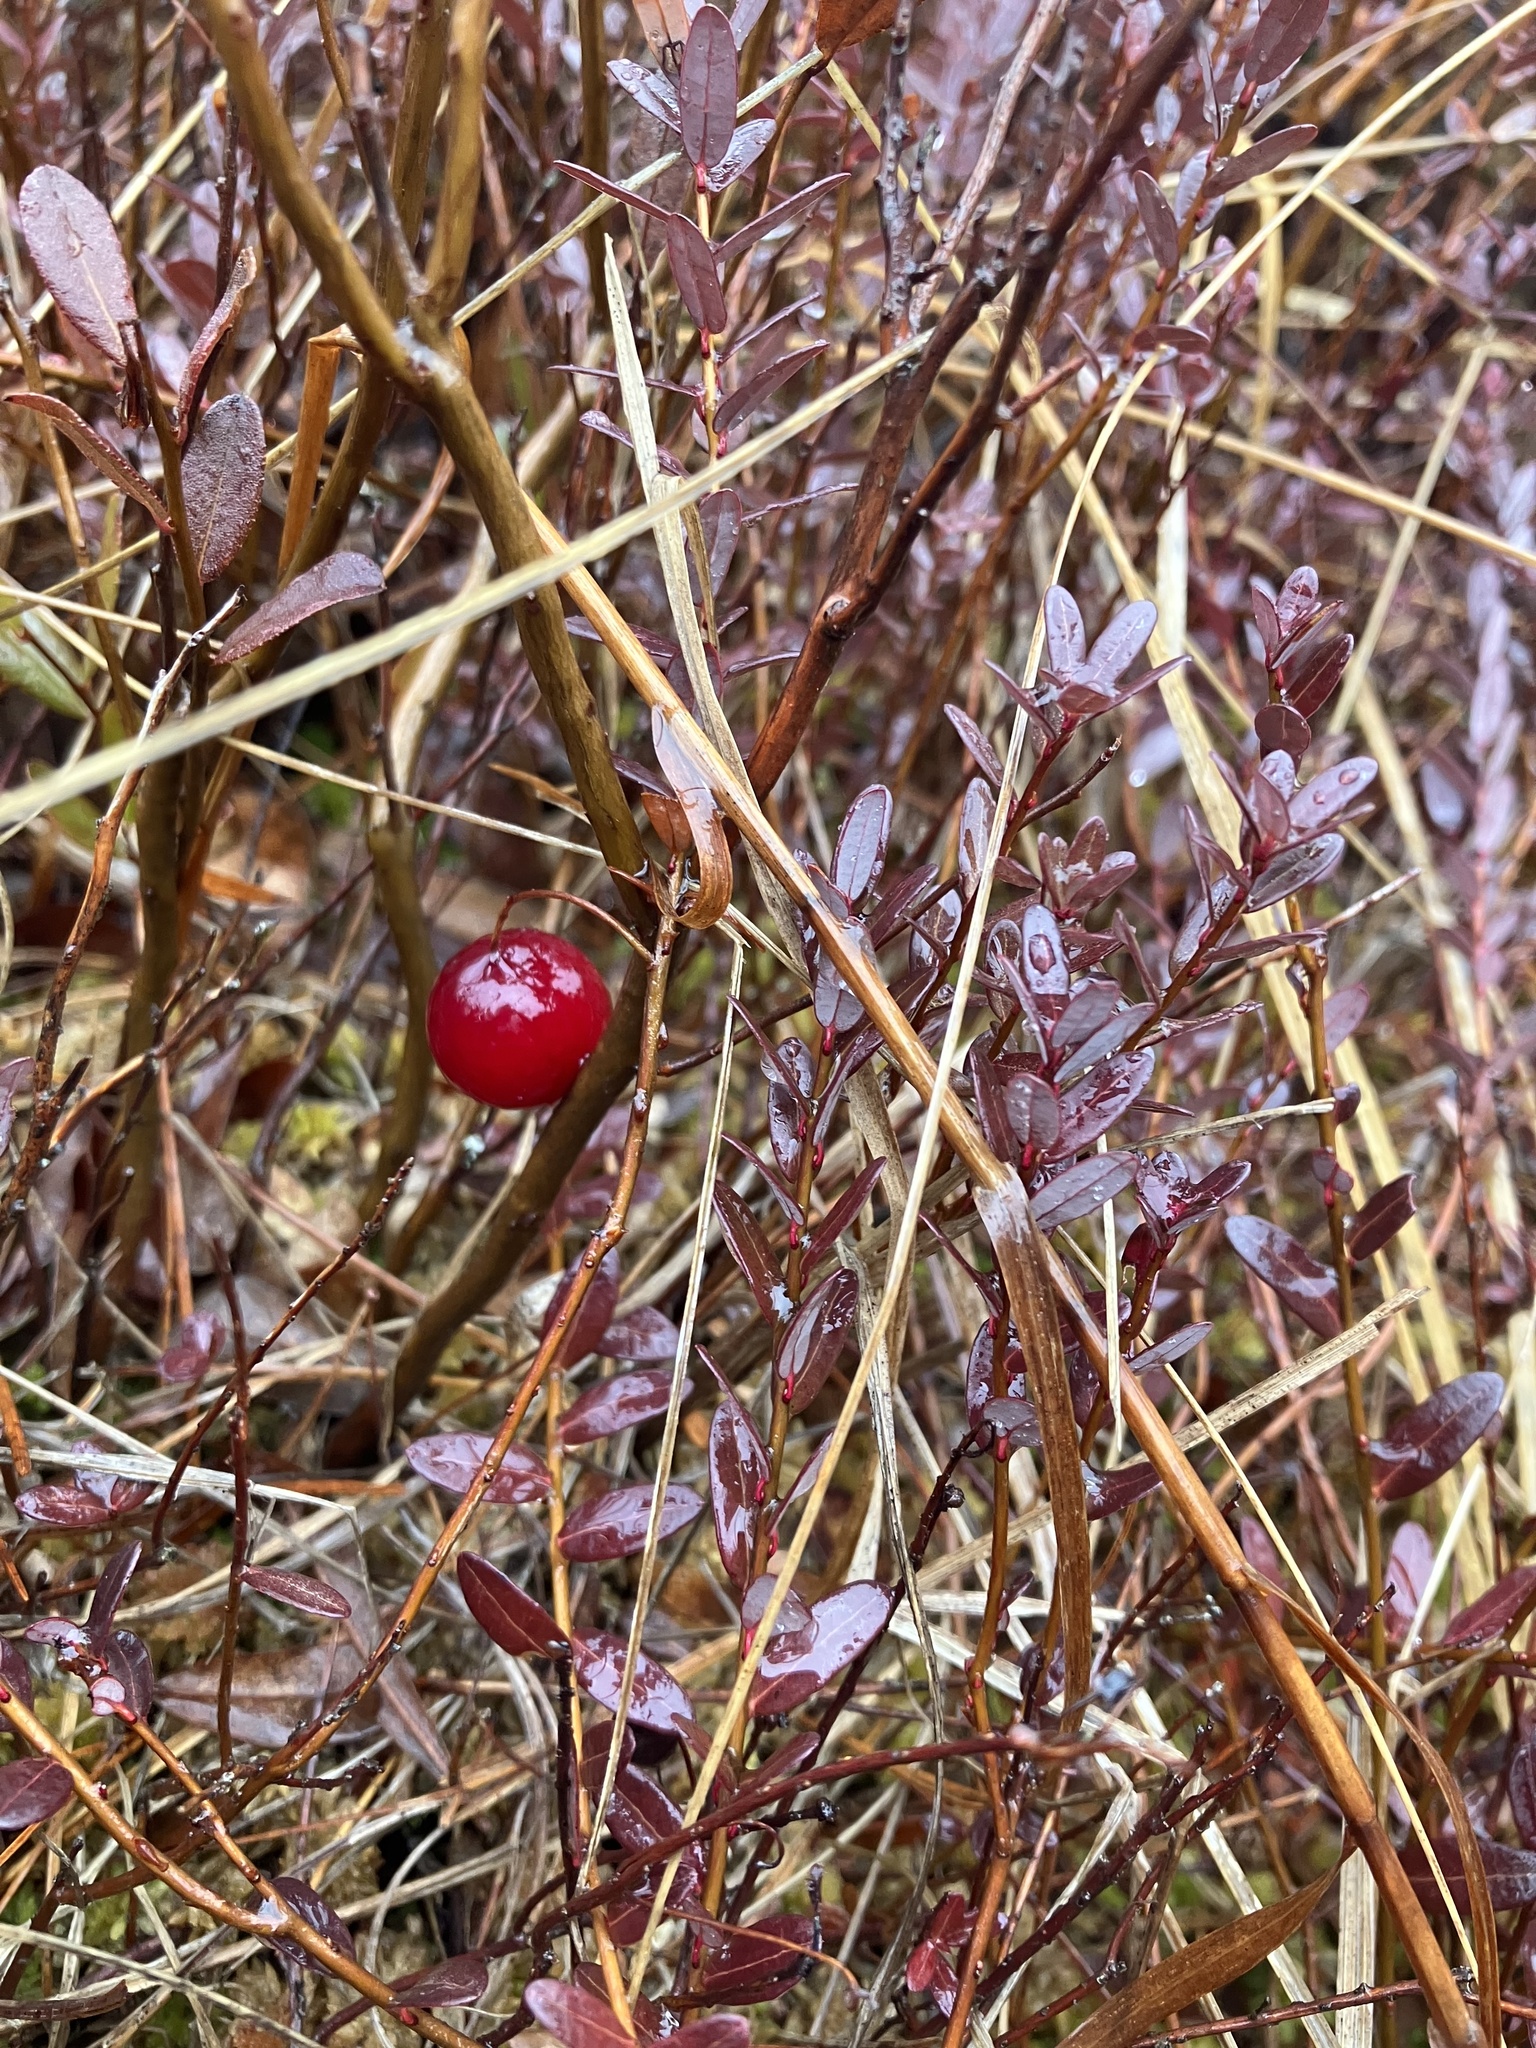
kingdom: Plantae
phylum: Tracheophyta
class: Magnoliopsida
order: Ericales
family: Ericaceae
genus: Vaccinium
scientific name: Vaccinium macrocarpon
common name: American cranberry
